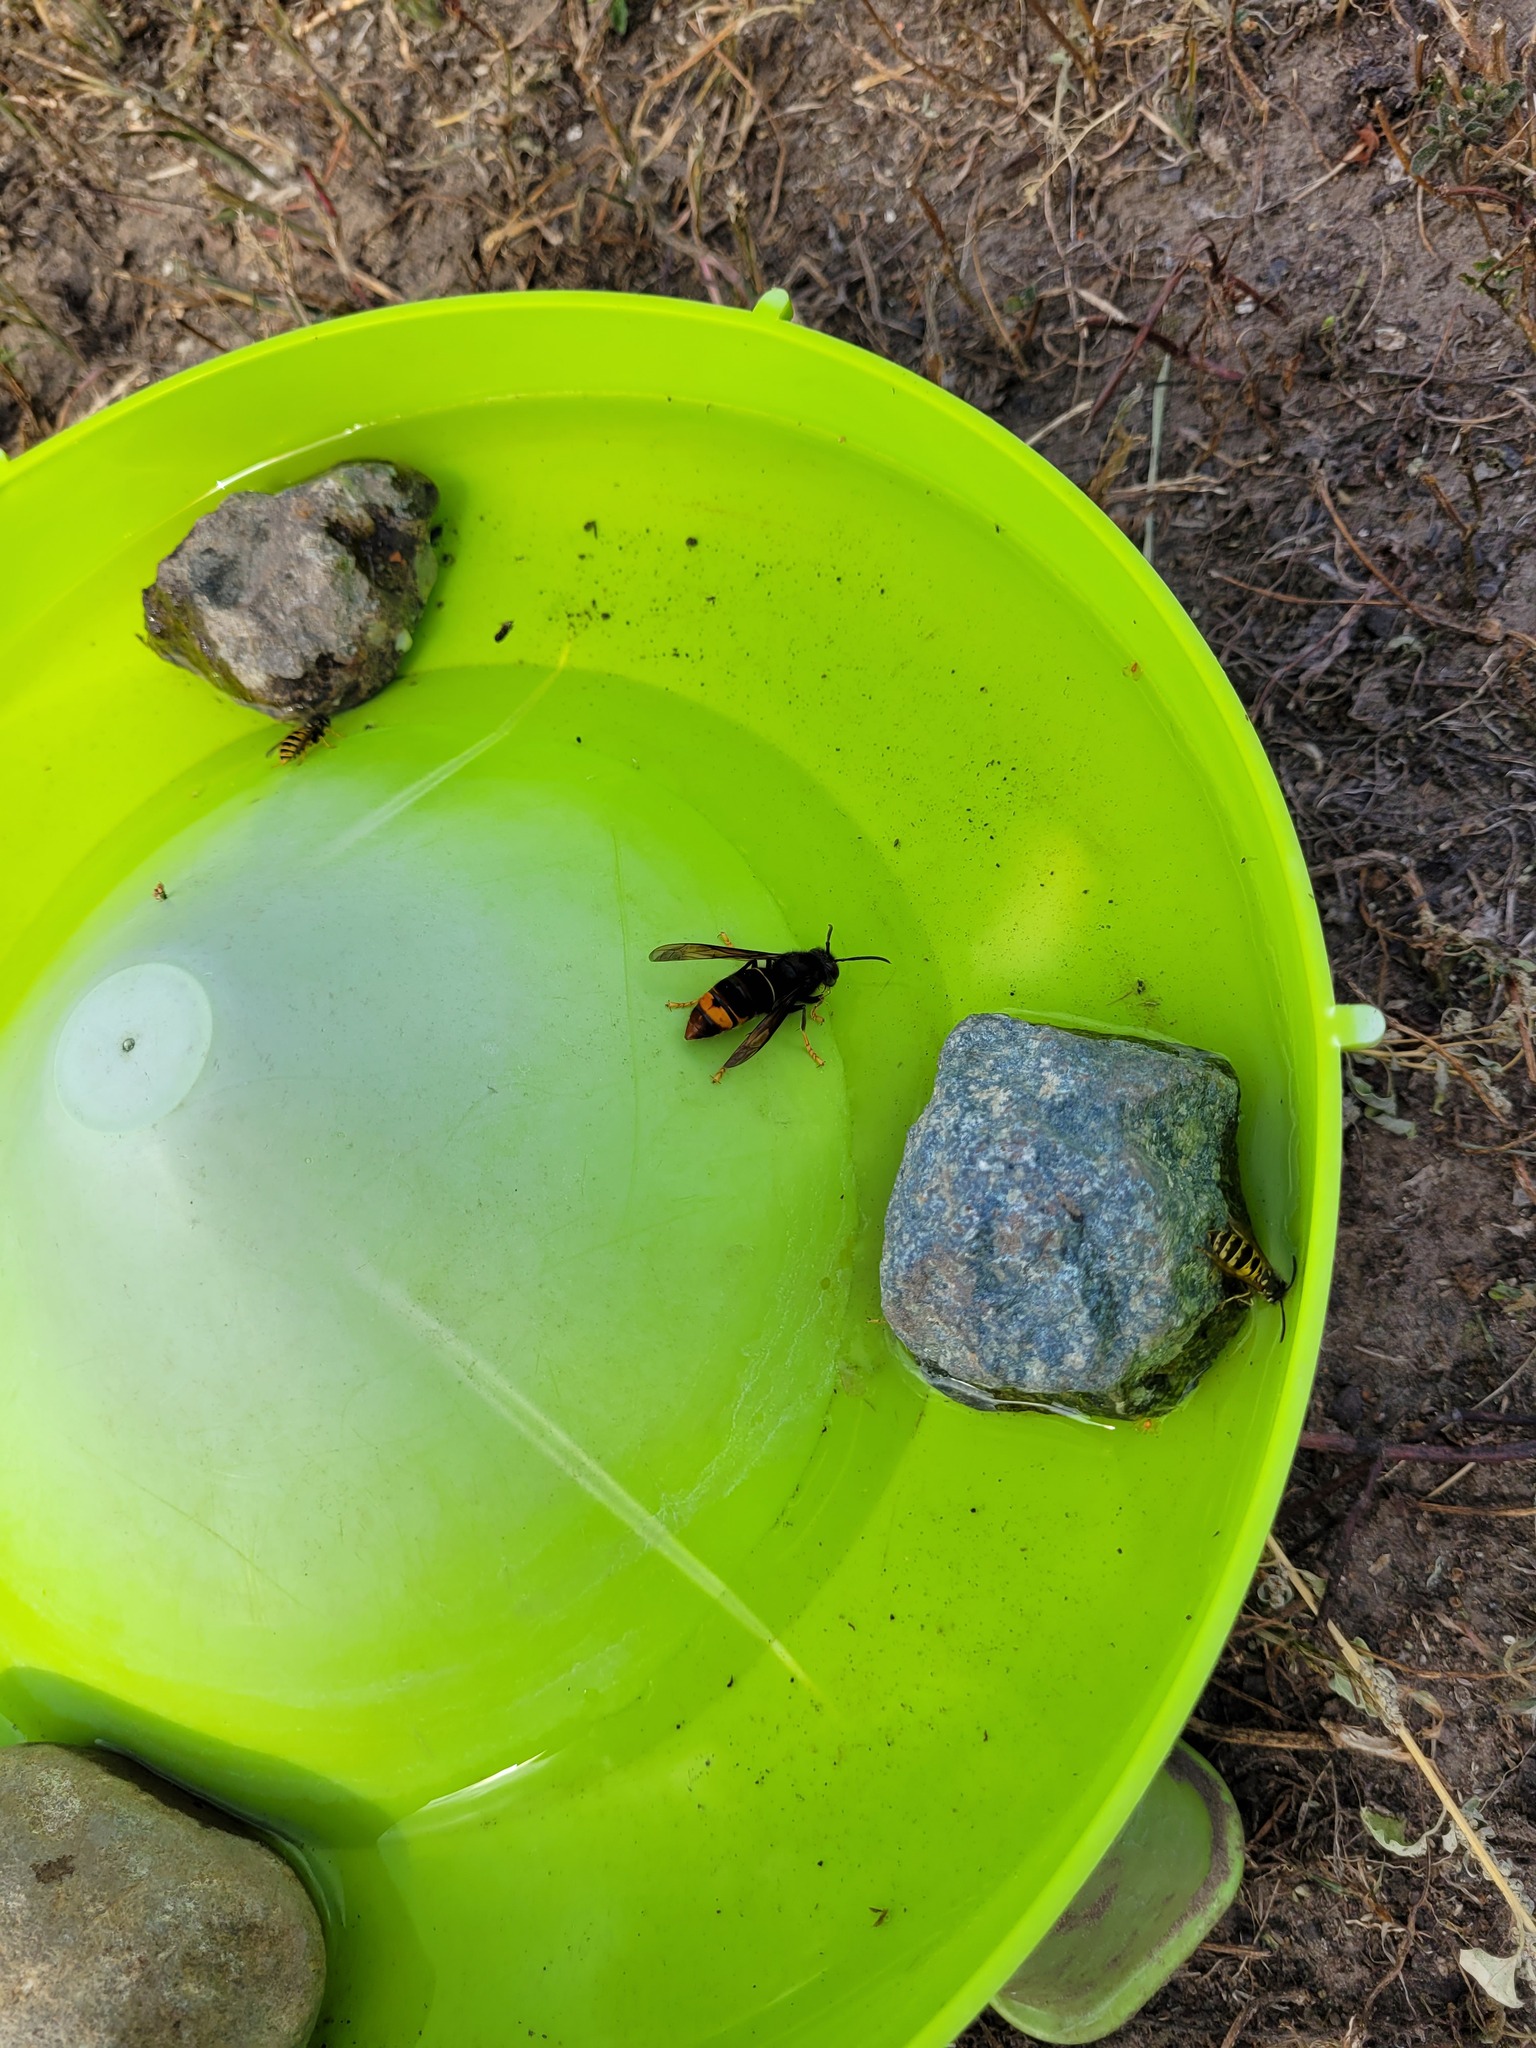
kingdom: Animalia
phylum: Arthropoda
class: Insecta
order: Hymenoptera
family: Vespidae
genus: Vespa
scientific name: Vespa velutina
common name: Asian hornet
